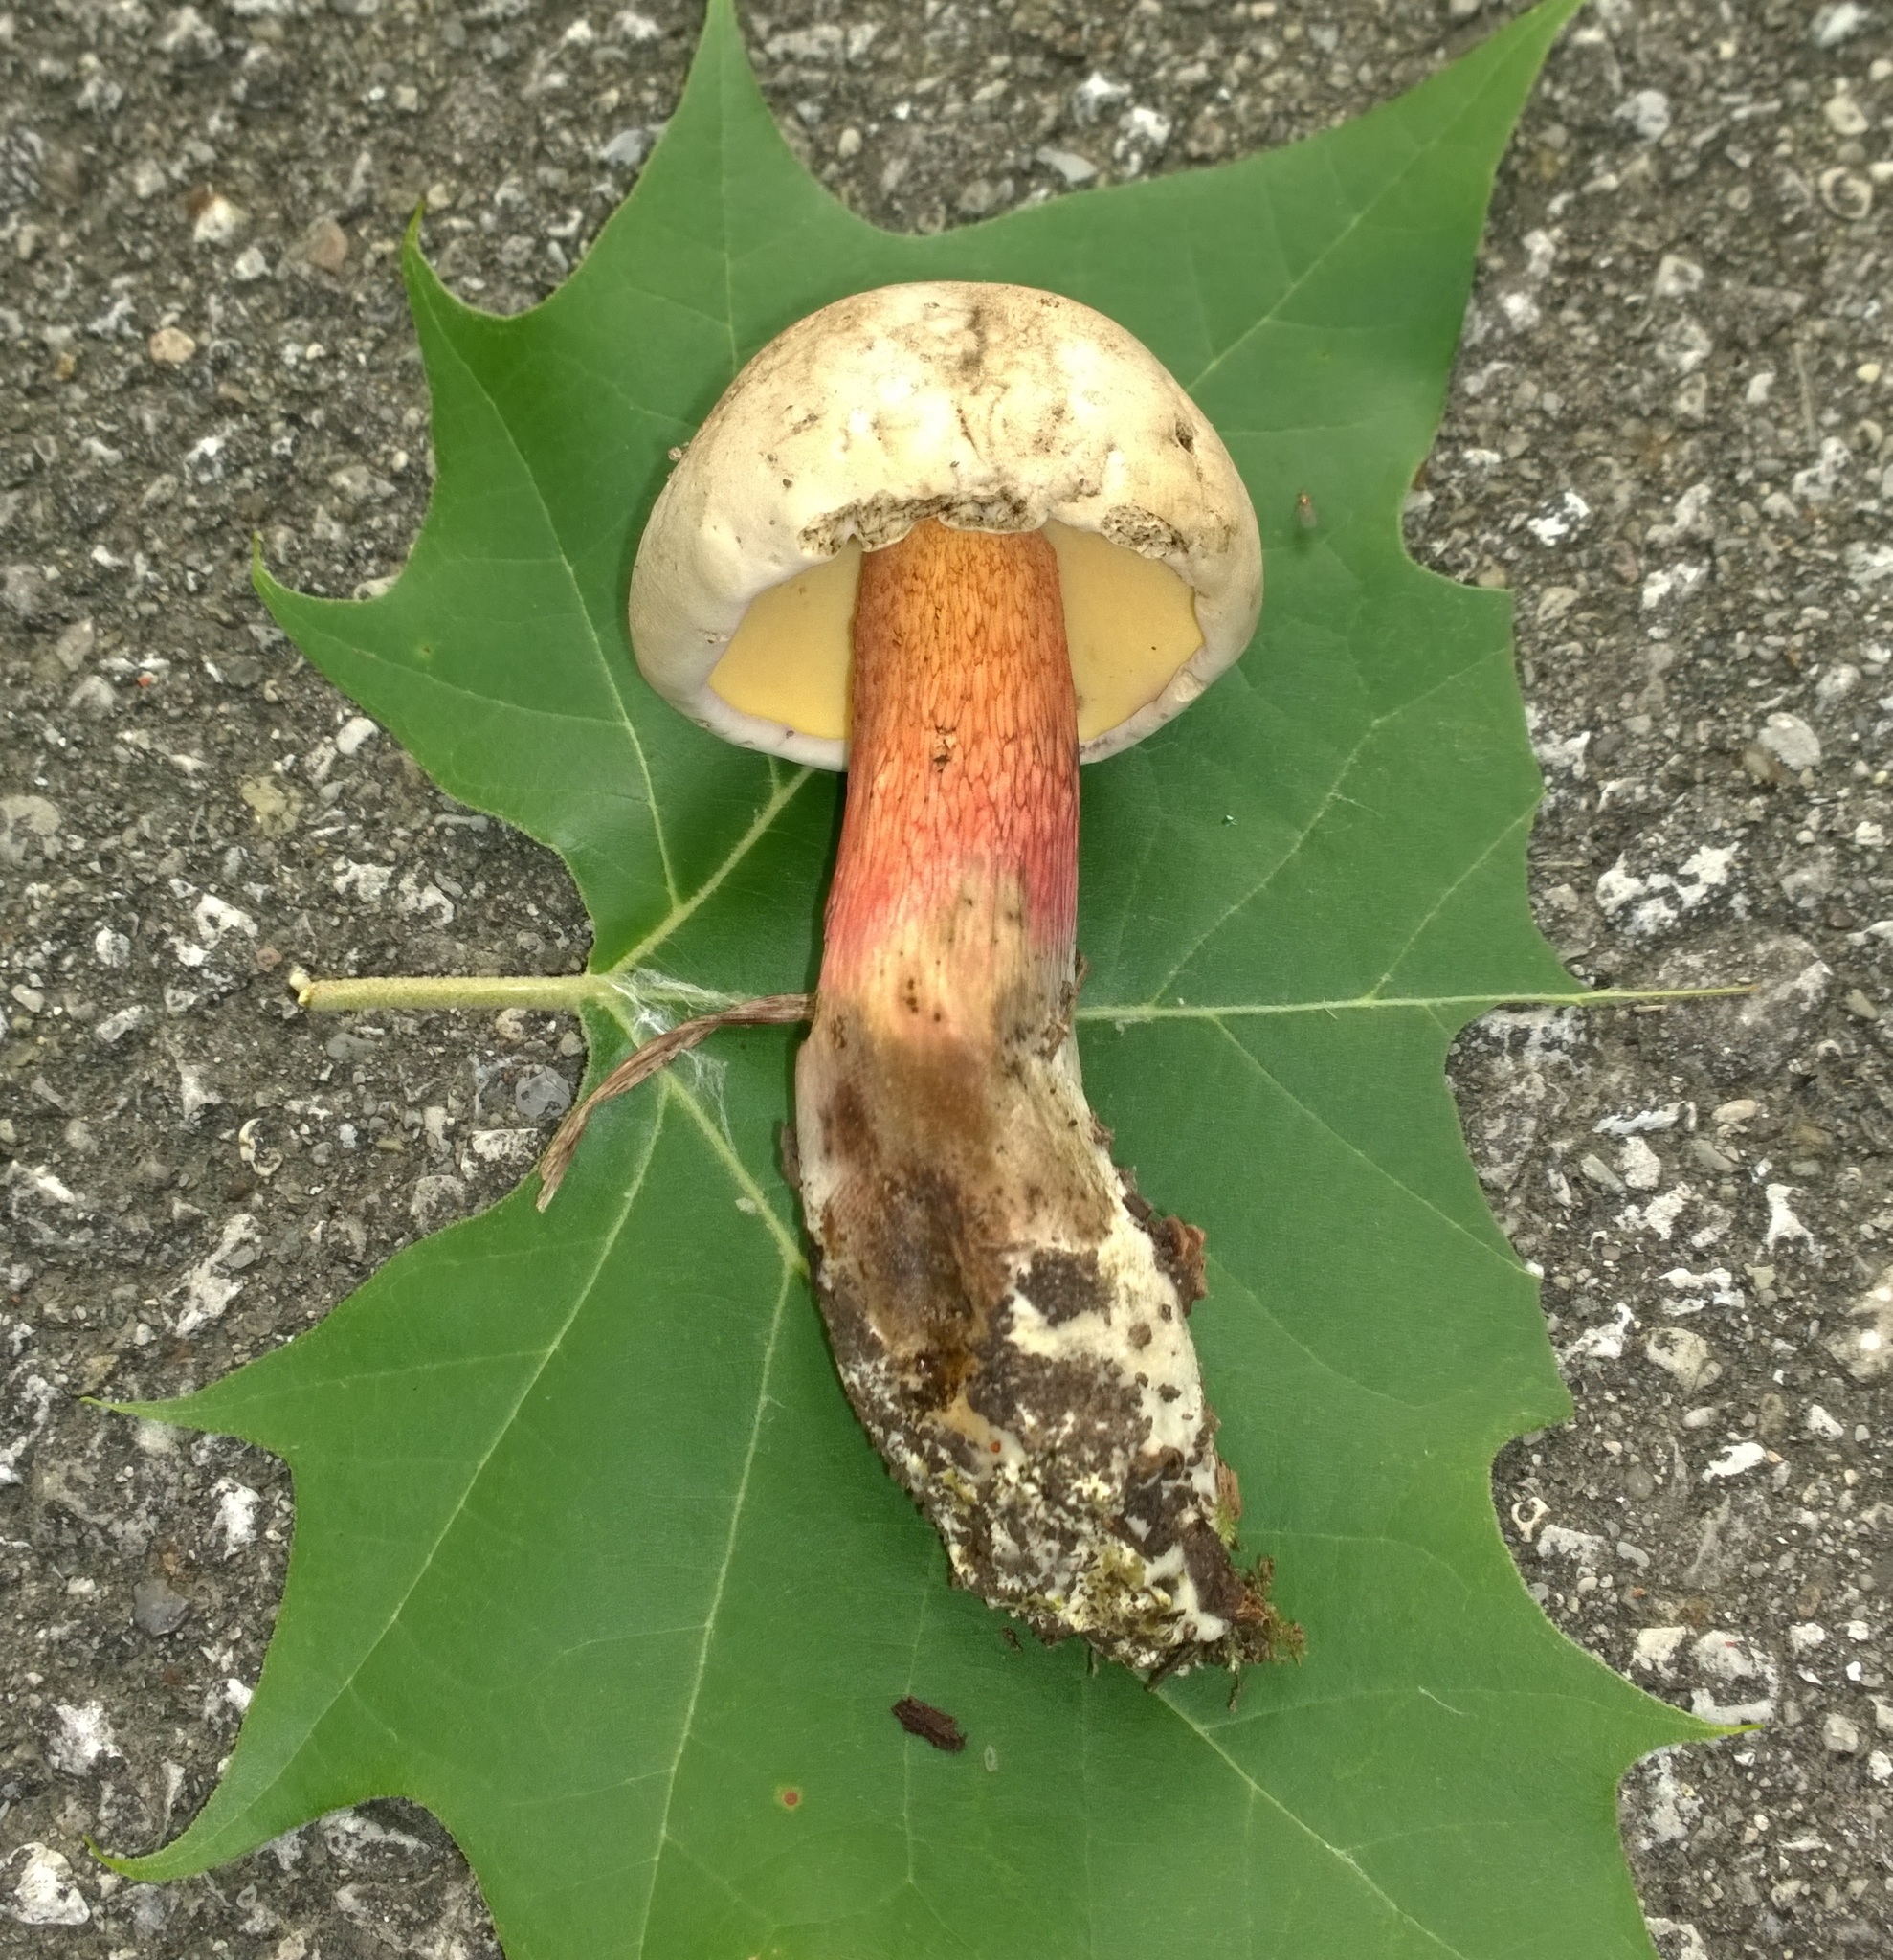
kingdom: Fungi
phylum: Basidiomycota
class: Agaricomycetes
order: Boletales
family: Boletaceae
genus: Caloboletus
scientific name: Caloboletus inedulis
